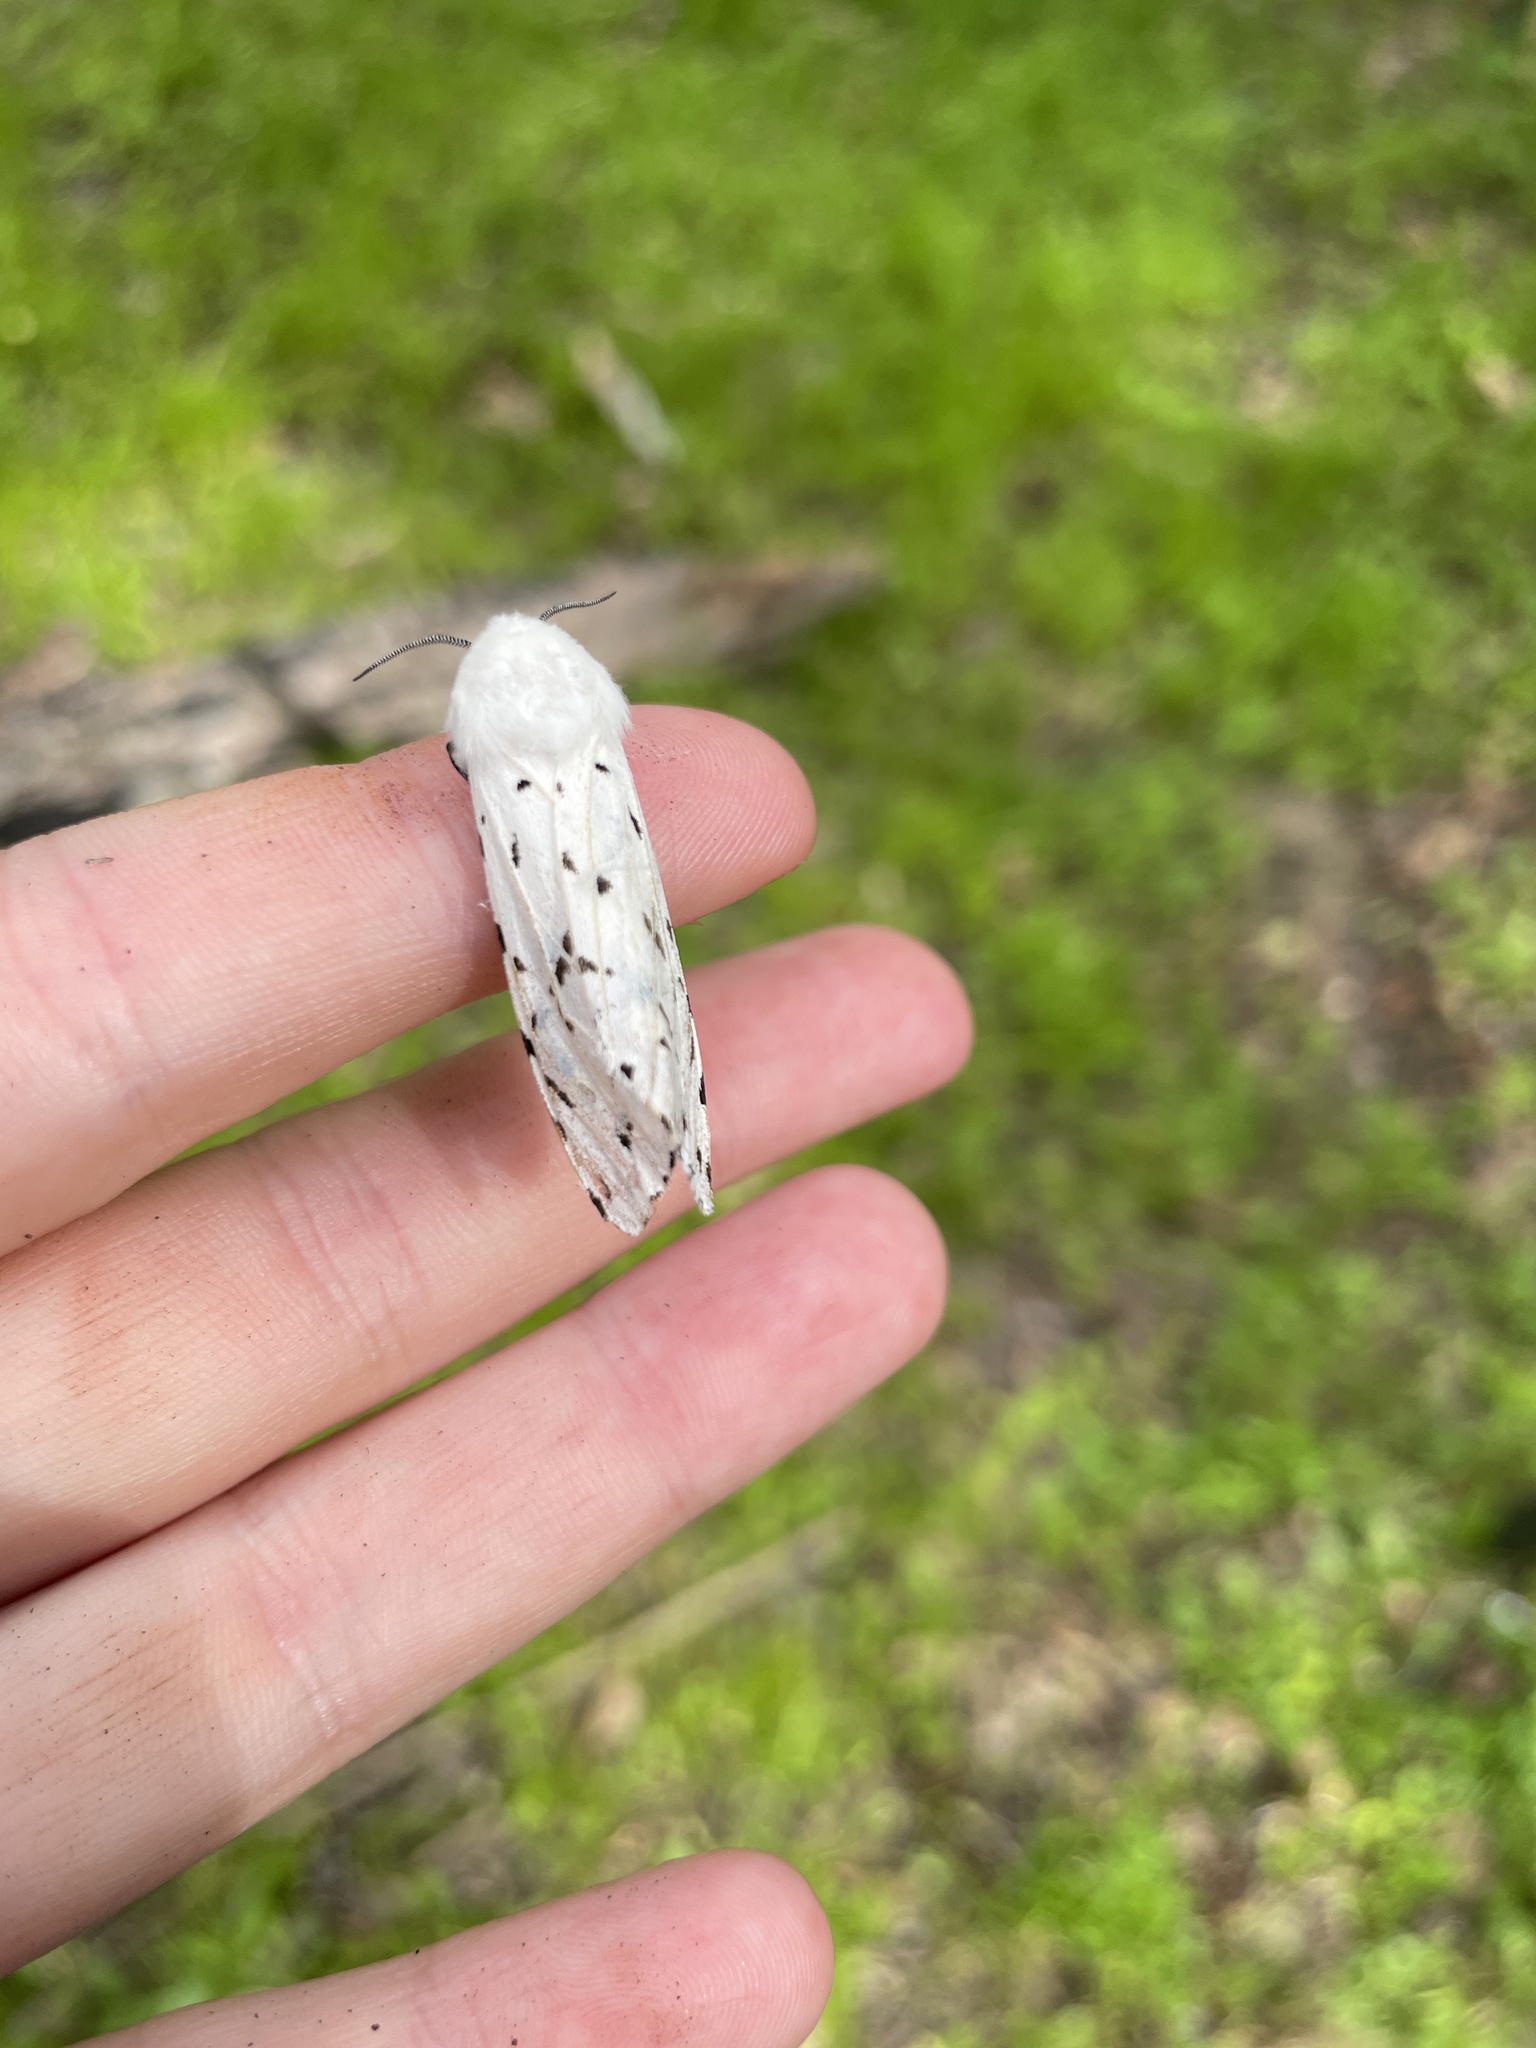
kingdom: Animalia
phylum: Arthropoda
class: Insecta
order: Lepidoptera
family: Erebidae
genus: Estigmene
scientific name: Estigmene acrea
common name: Salt marsh moth
